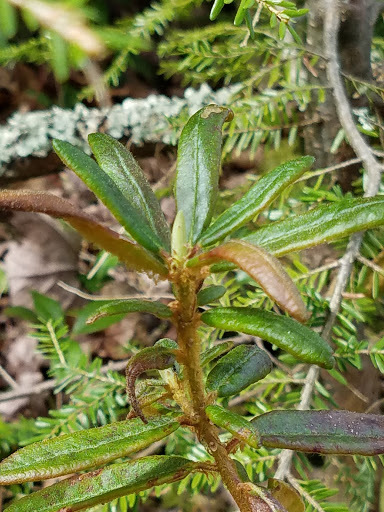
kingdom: Plantae
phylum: Tracheophyta
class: Magnoliopsida
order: Ericales
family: Ericaceae
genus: Rhododendron
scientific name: Rhododendron groenlandicum
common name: Bog labrador tea
